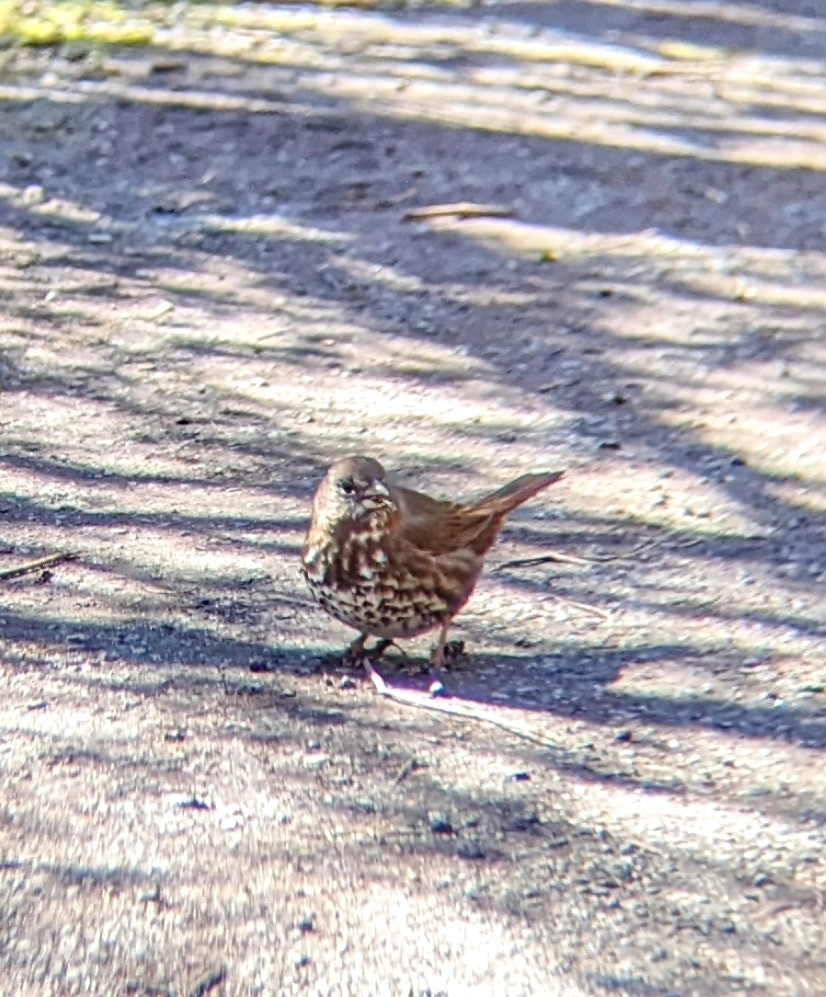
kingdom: Animalia
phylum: Chordata
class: Aves
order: Passeriformes
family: Passerellidae
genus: Passerella
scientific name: Passerella iliaca
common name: Fox sparrow
